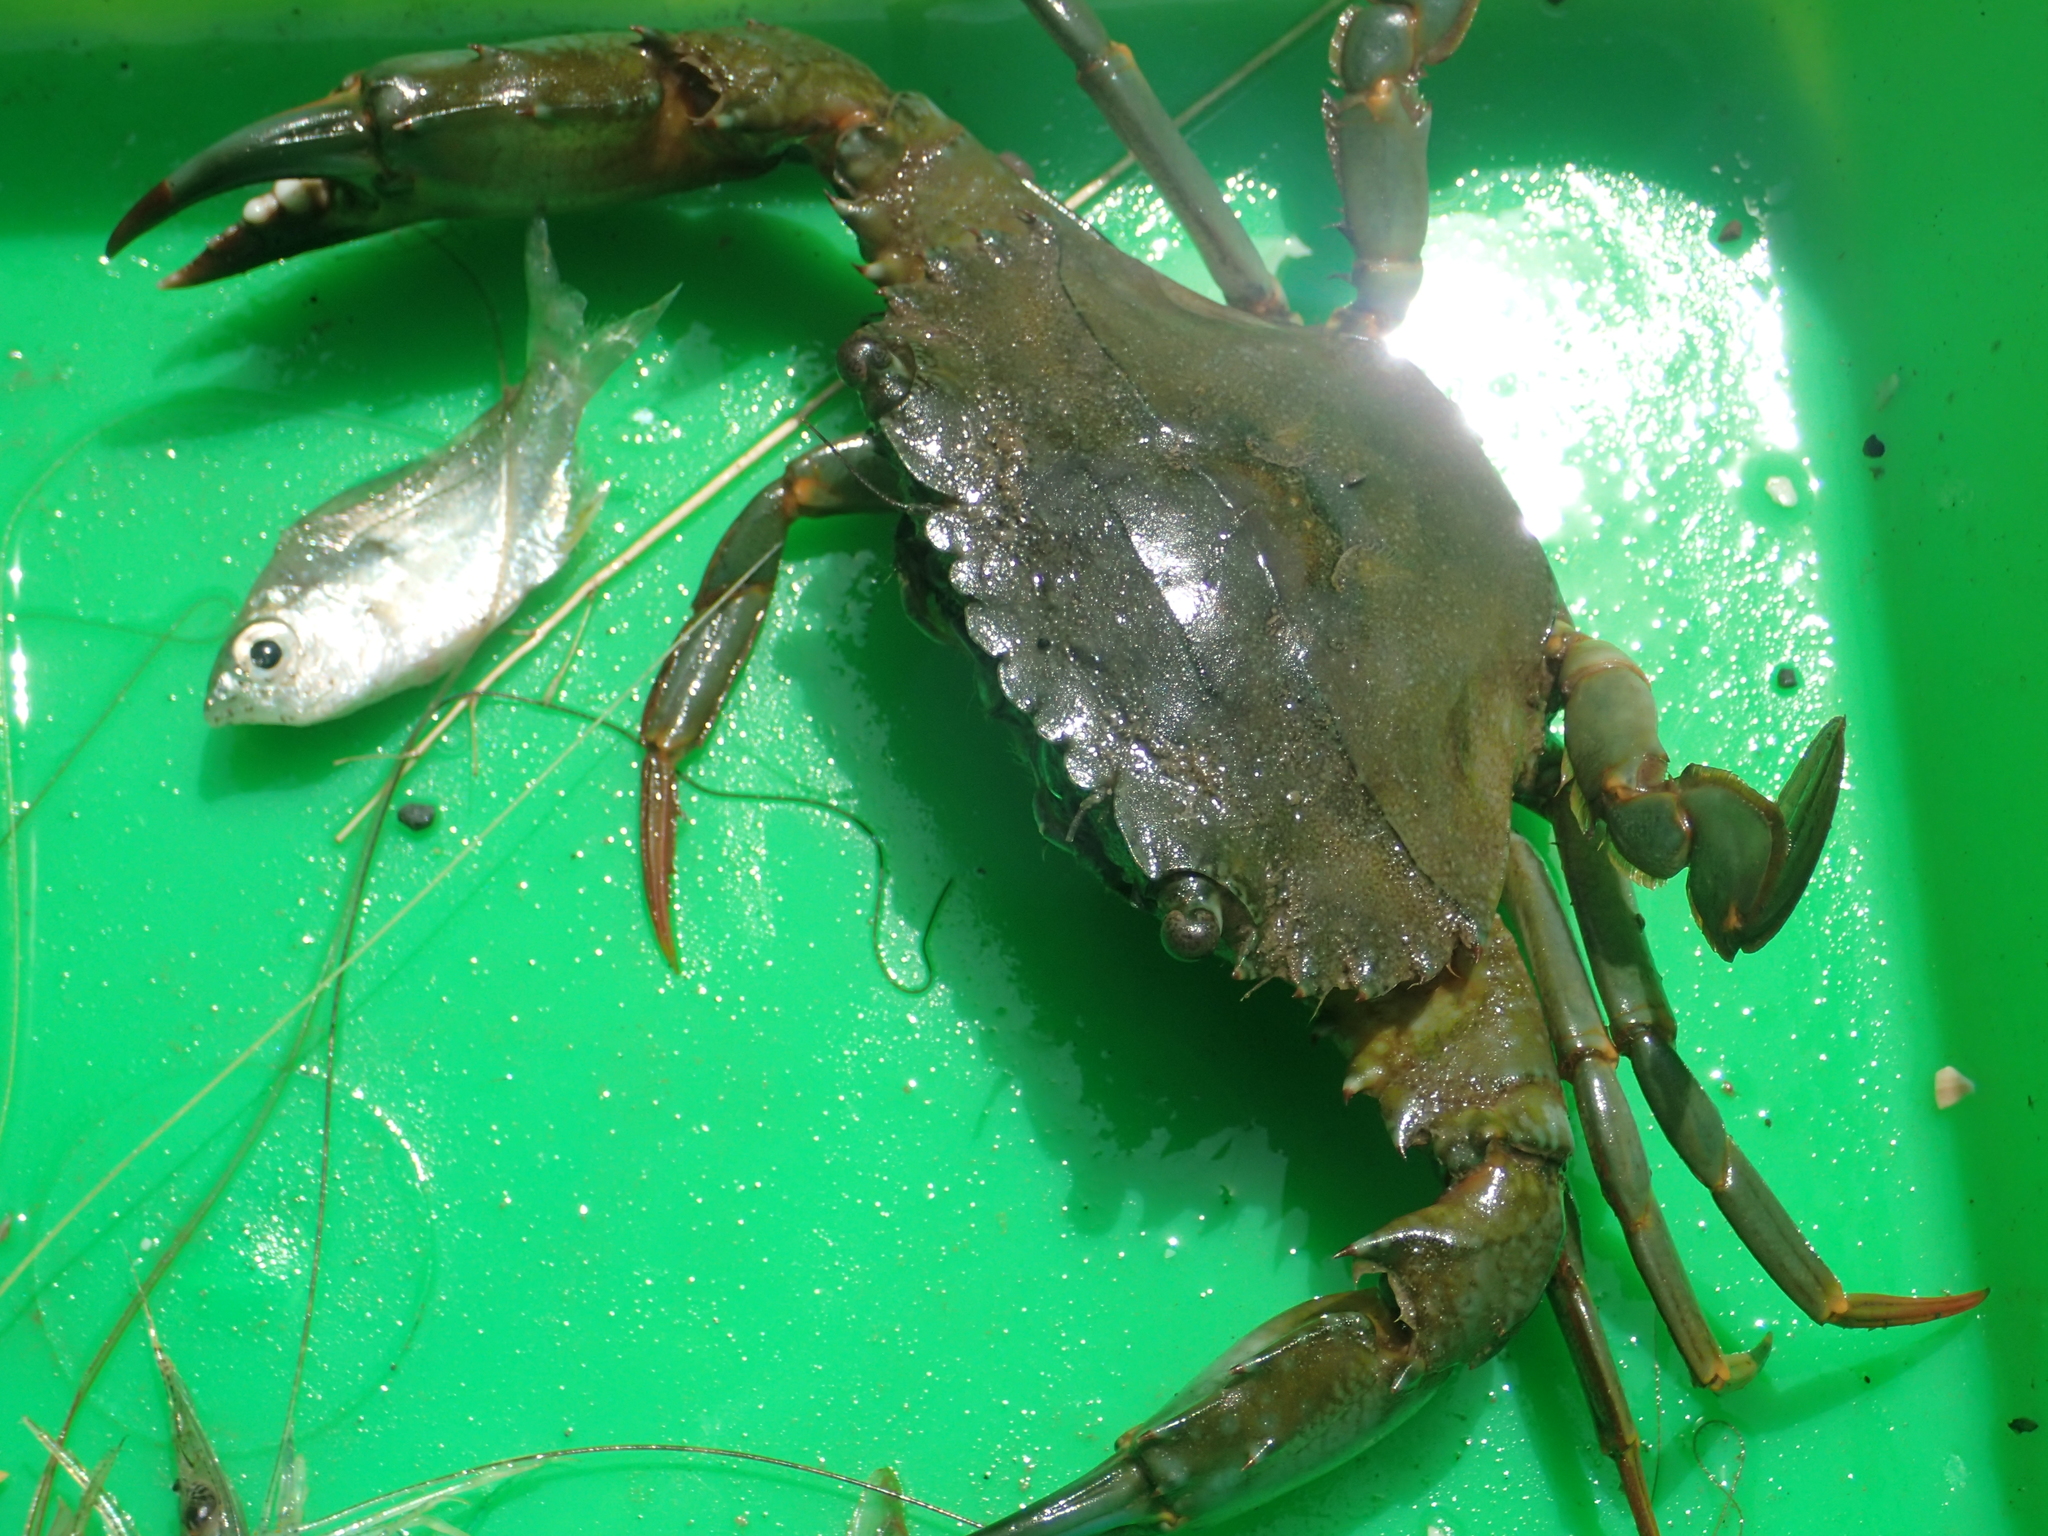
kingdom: Animalia
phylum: Arthropoda
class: Malacostraca
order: Decapoda
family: Portunidae
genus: Thalamita
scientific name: Thalamita crenata
